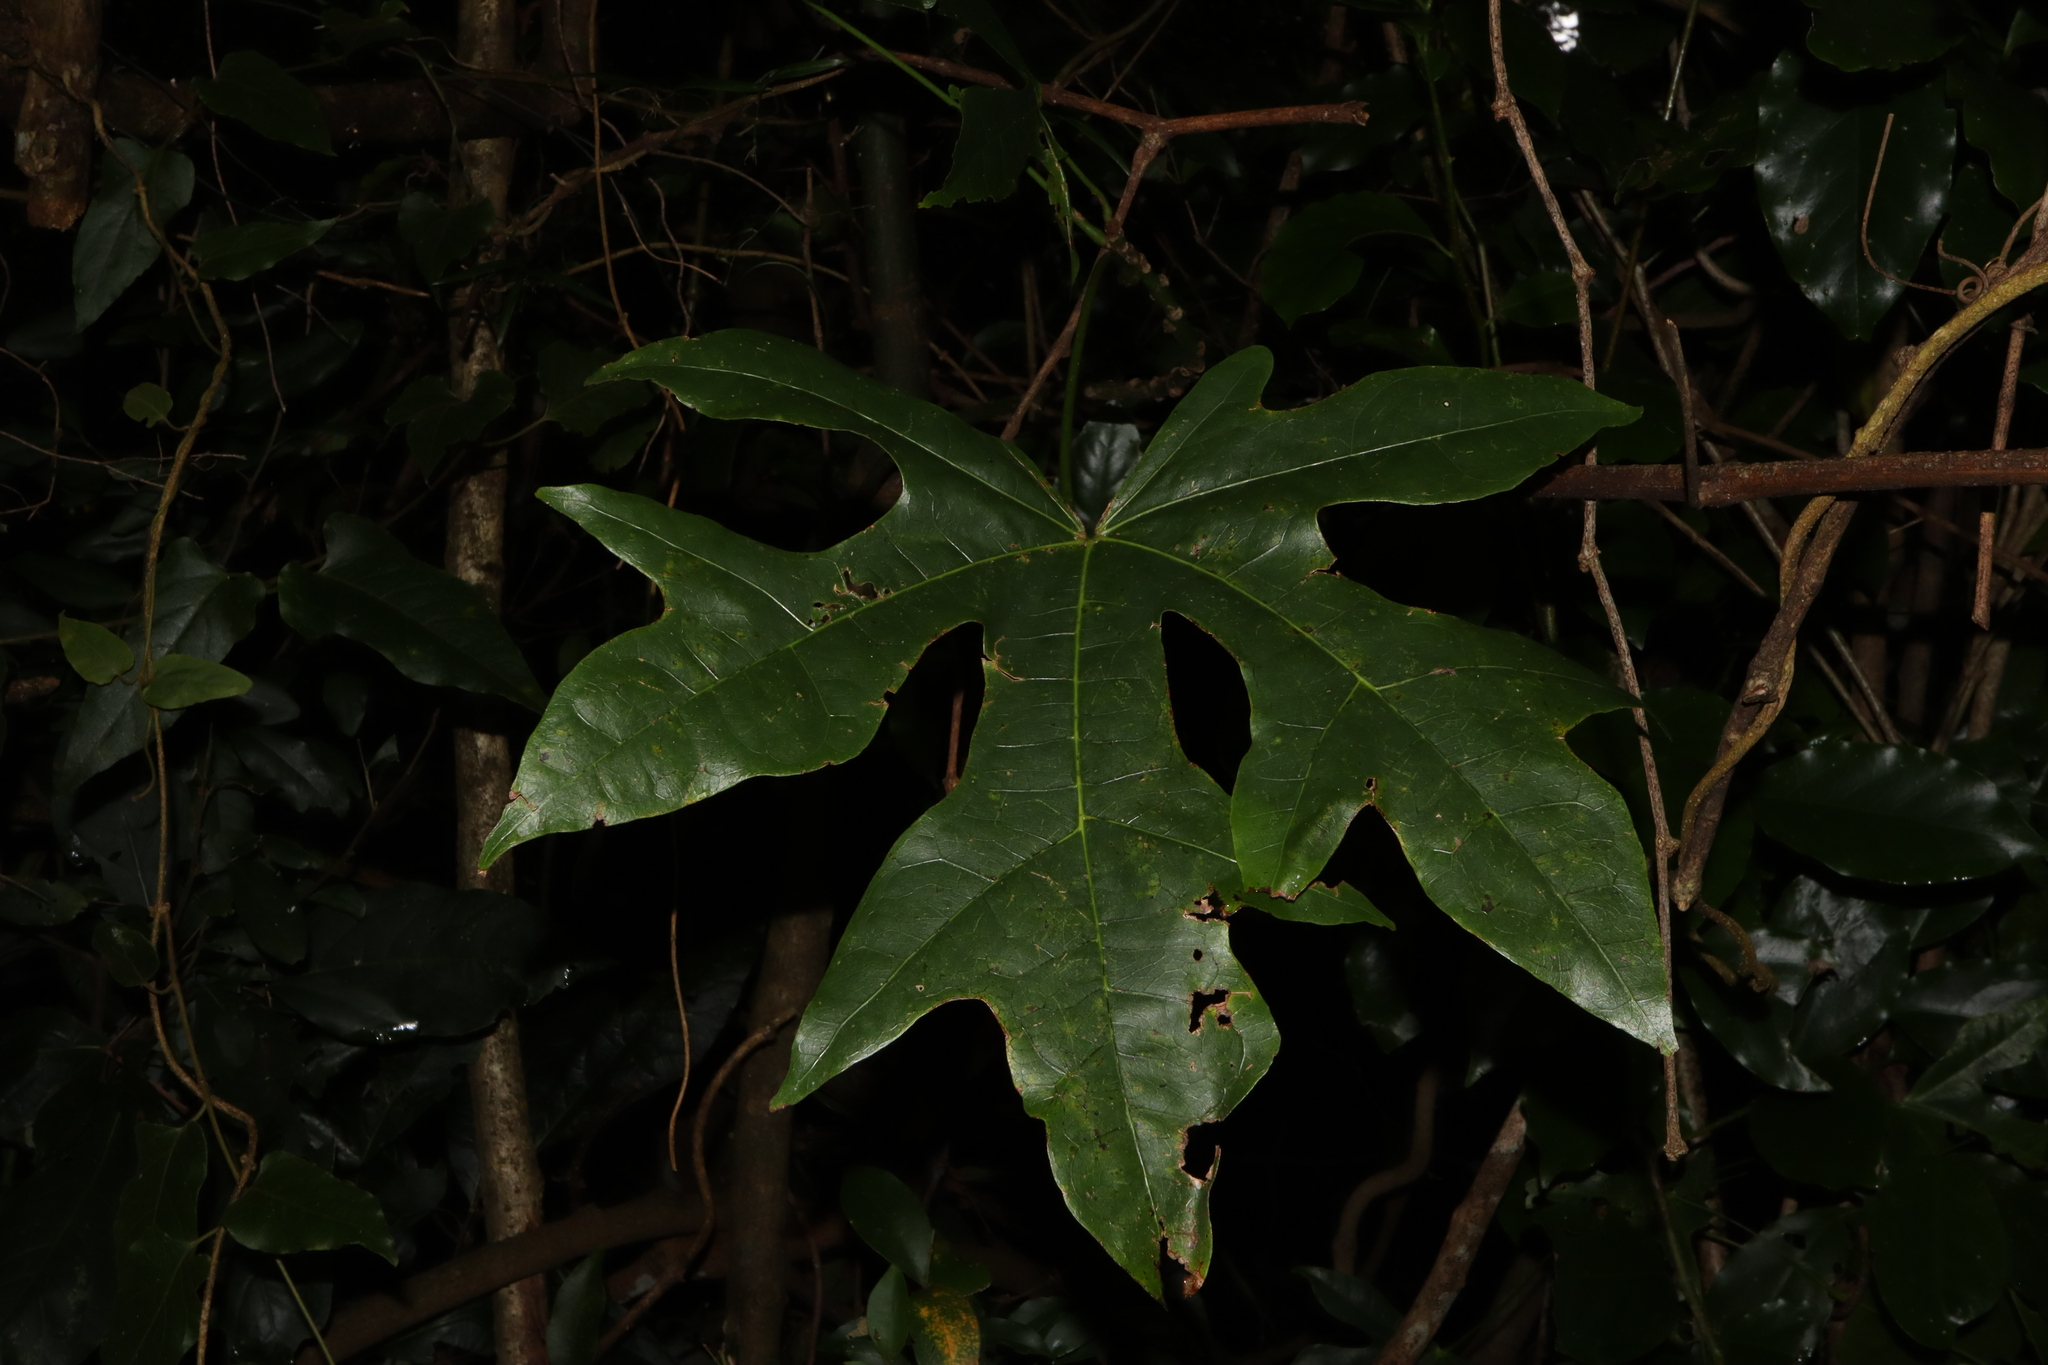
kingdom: Plantae
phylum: Tracheophyta
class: Magnoliopsida
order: Malvales
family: Malvaceae
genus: Brachychiton
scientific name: Brachychiton acerifolius
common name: Illawarra flame tree
